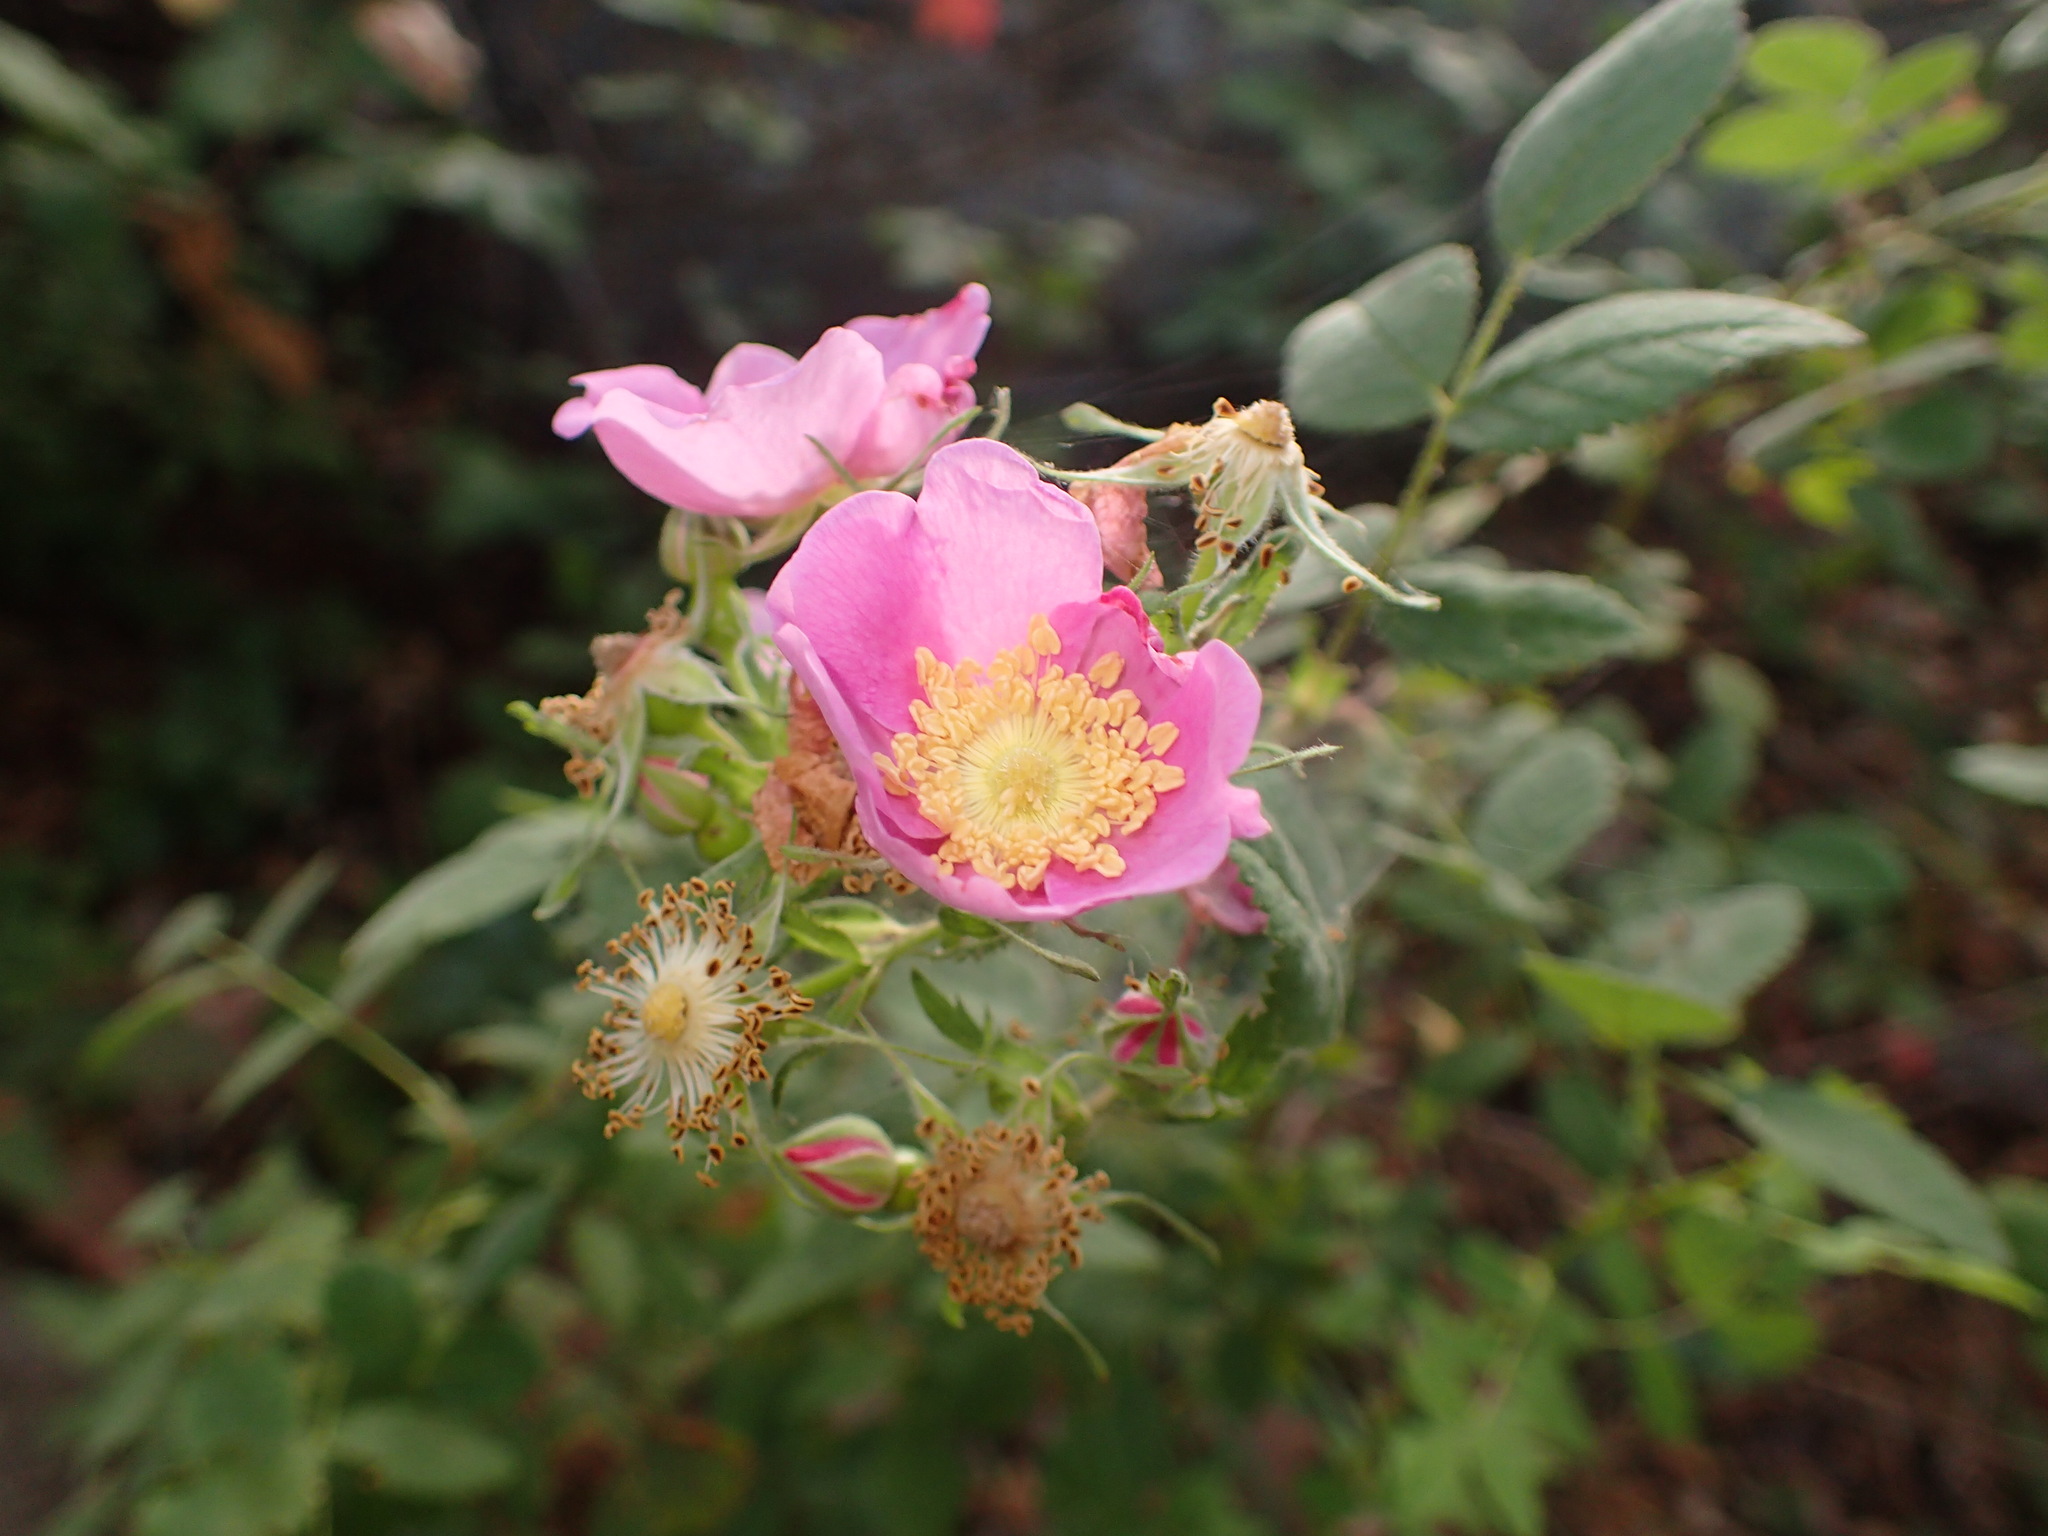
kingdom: Plantae
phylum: Tracheophyta
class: Magnoliopsida
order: Rosales
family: Rosaceae
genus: Rosa
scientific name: Rosa californica
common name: California rose
